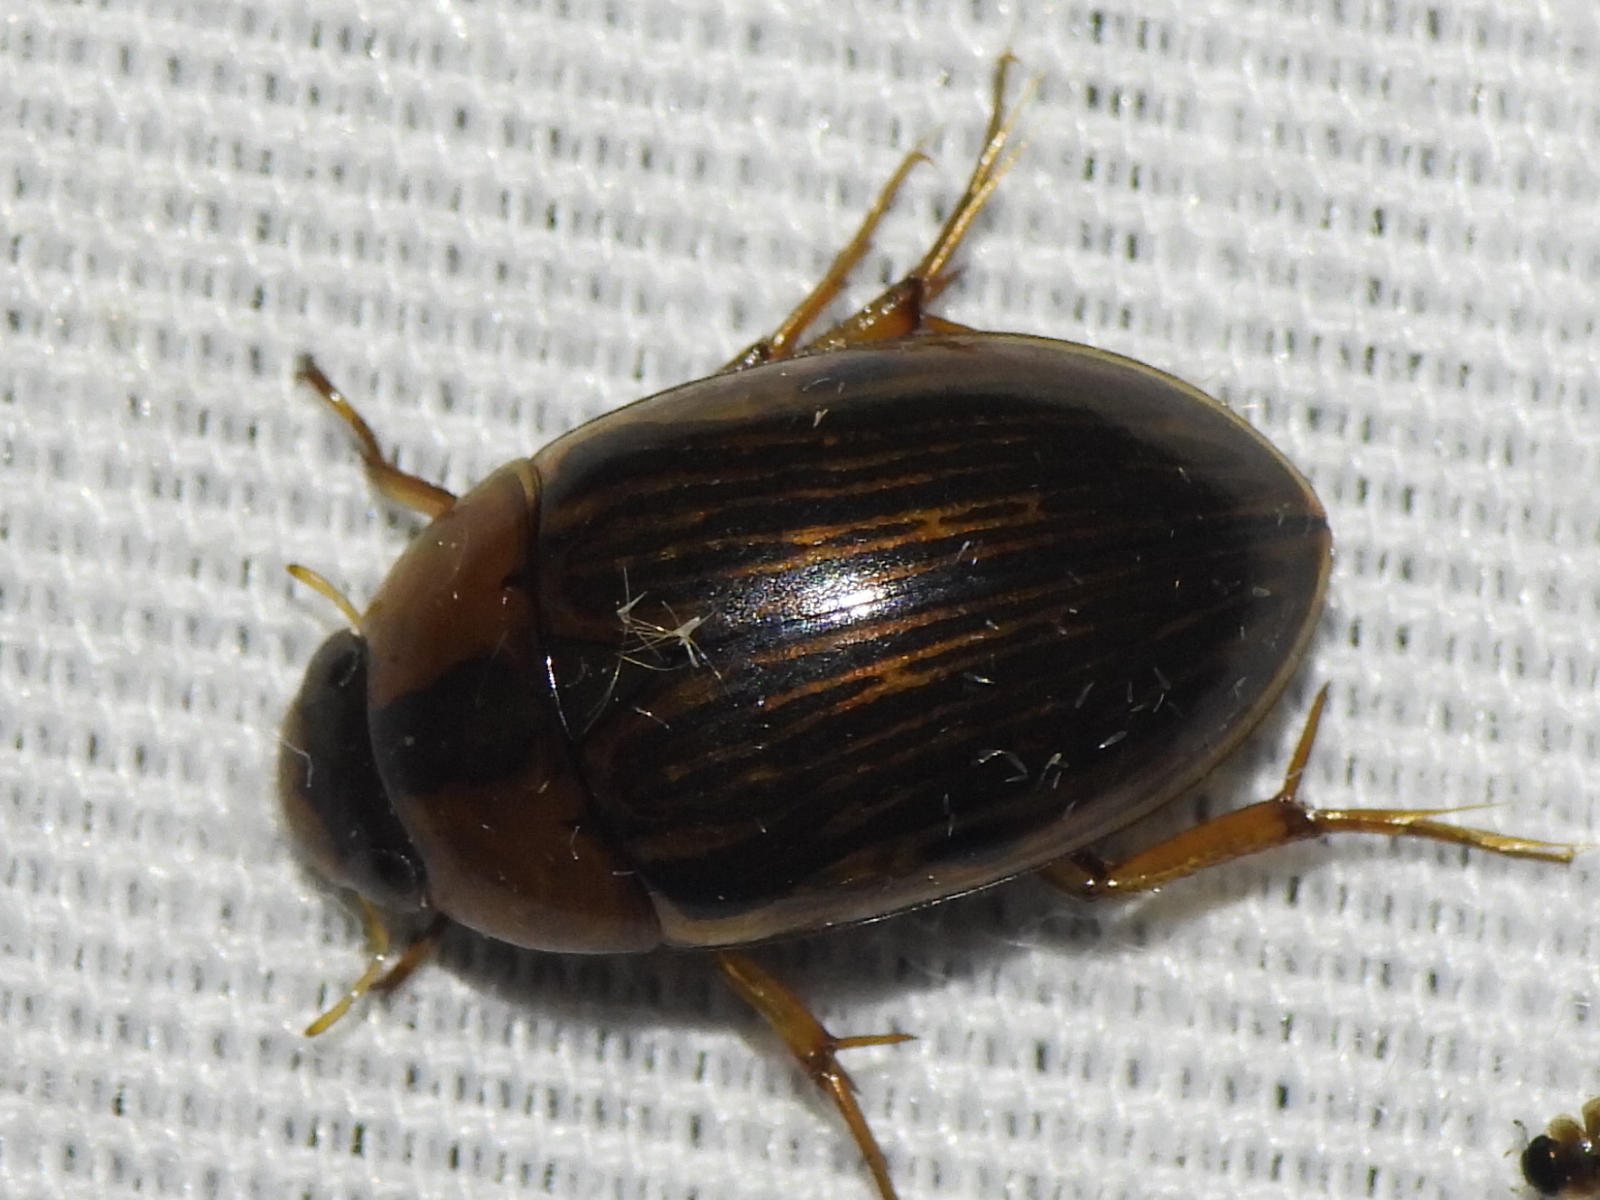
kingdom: Animalia
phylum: Arthropoda
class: Insecta
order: Coleoptera
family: Hydrophilidae
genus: Tropisternus
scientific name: Tropisternus collaris
